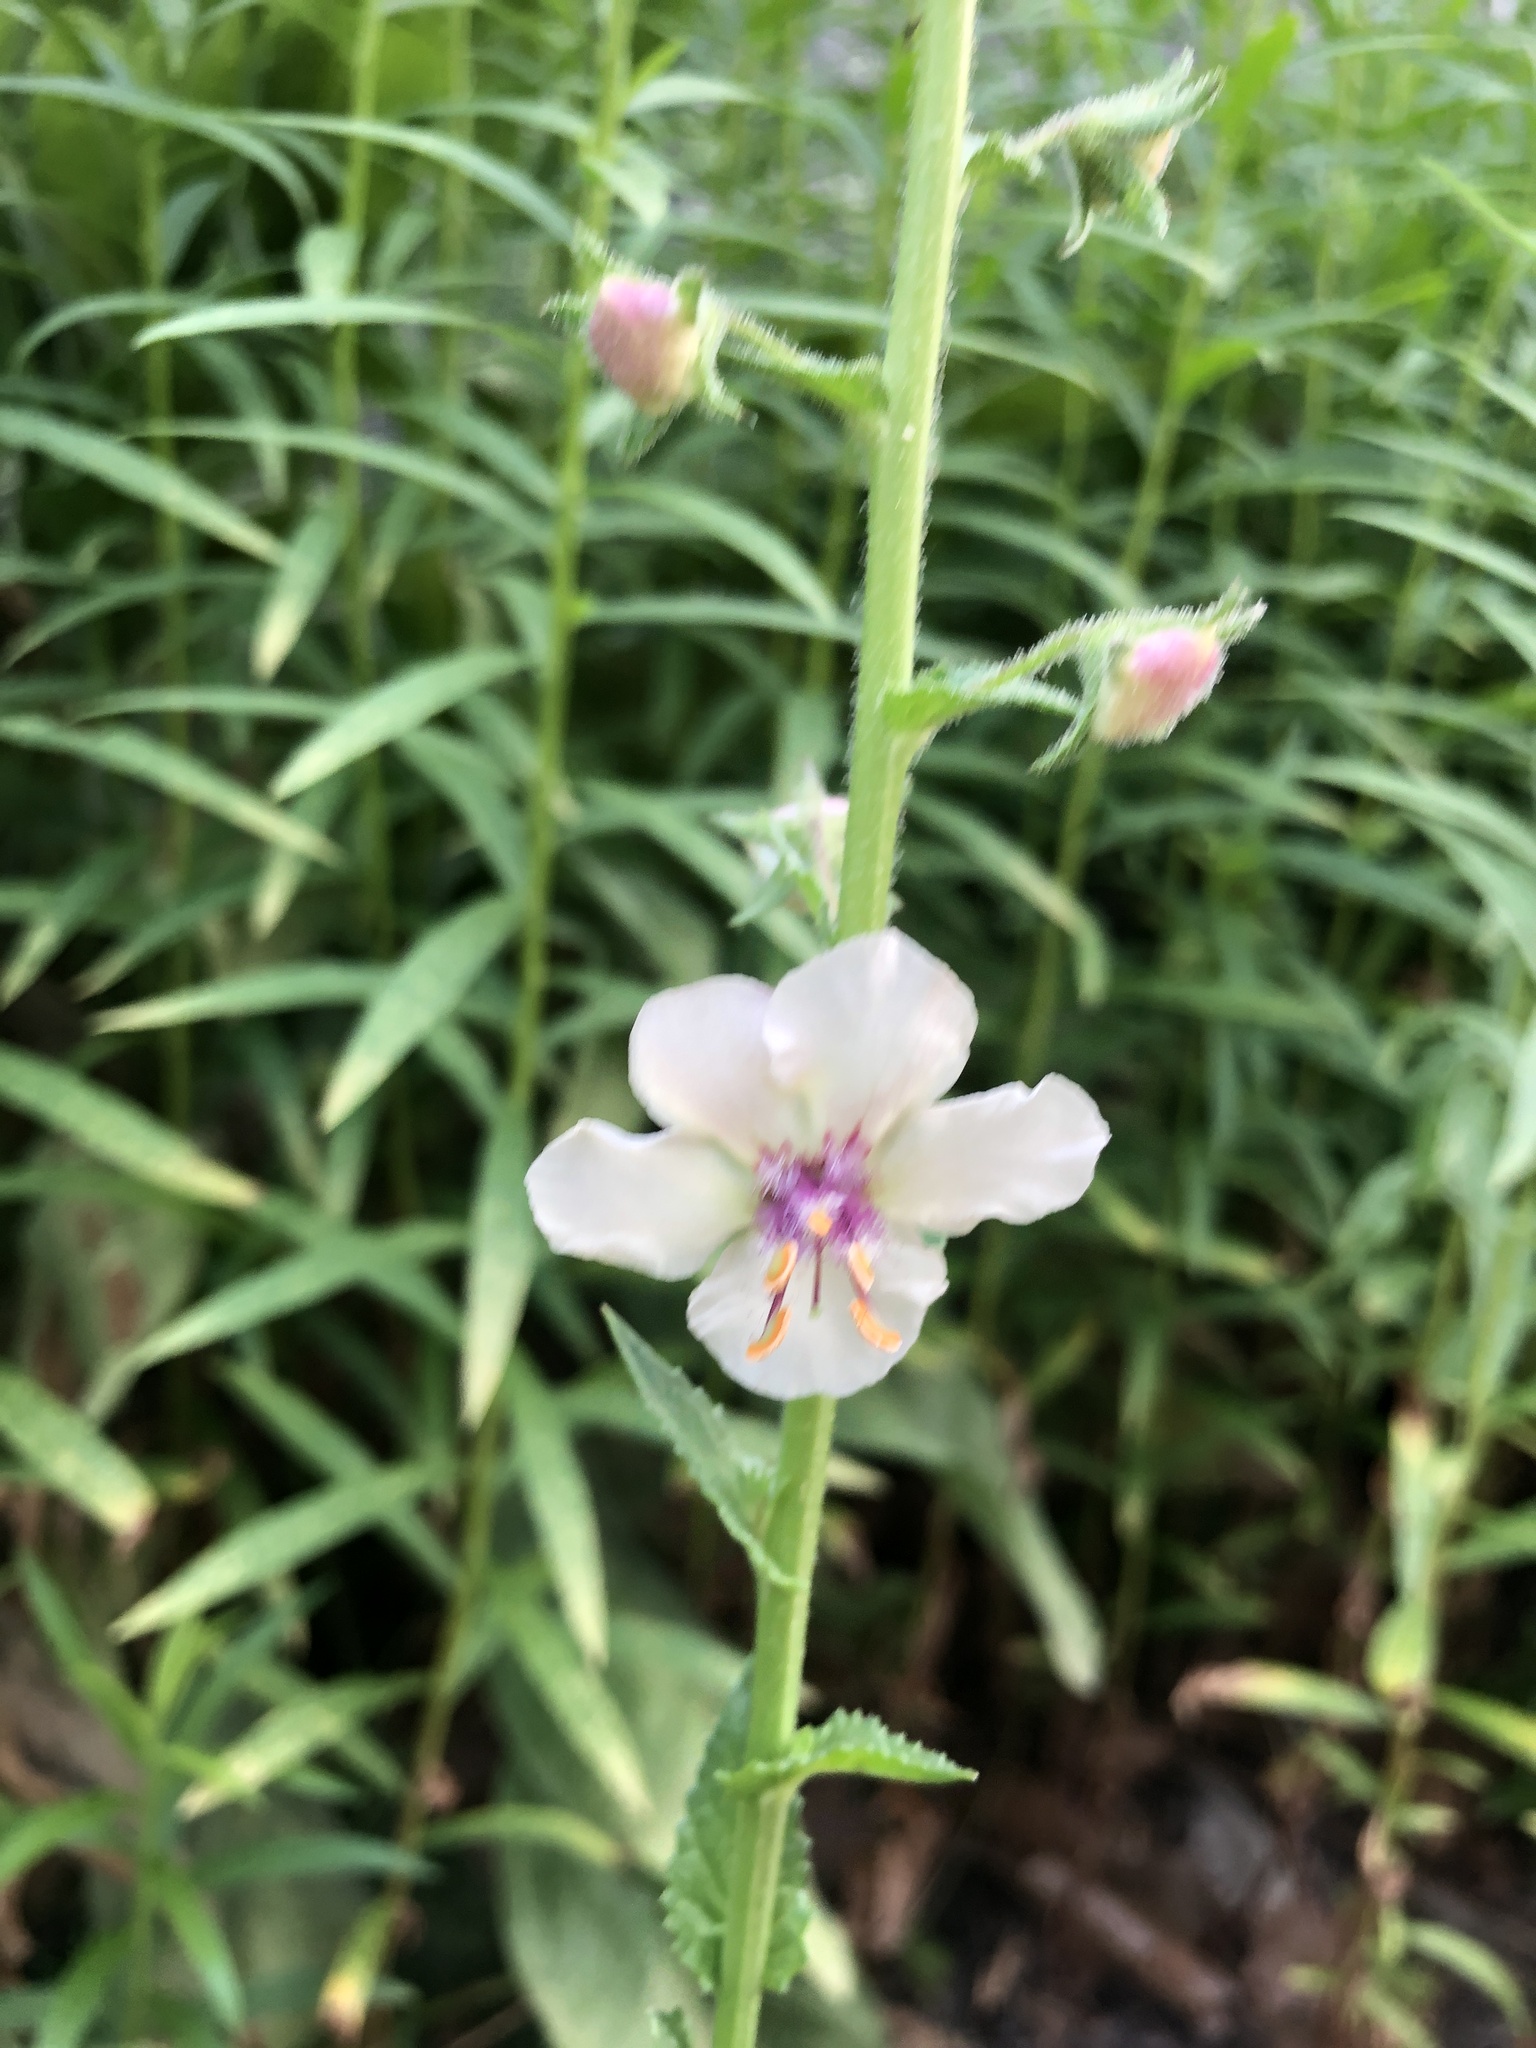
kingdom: Plantae
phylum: Tracheophyta
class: Magnoliopsida
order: Lamiales
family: Scrophulariaceae
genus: Verbascum
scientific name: Verbascum blattaria
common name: Moth mullein
